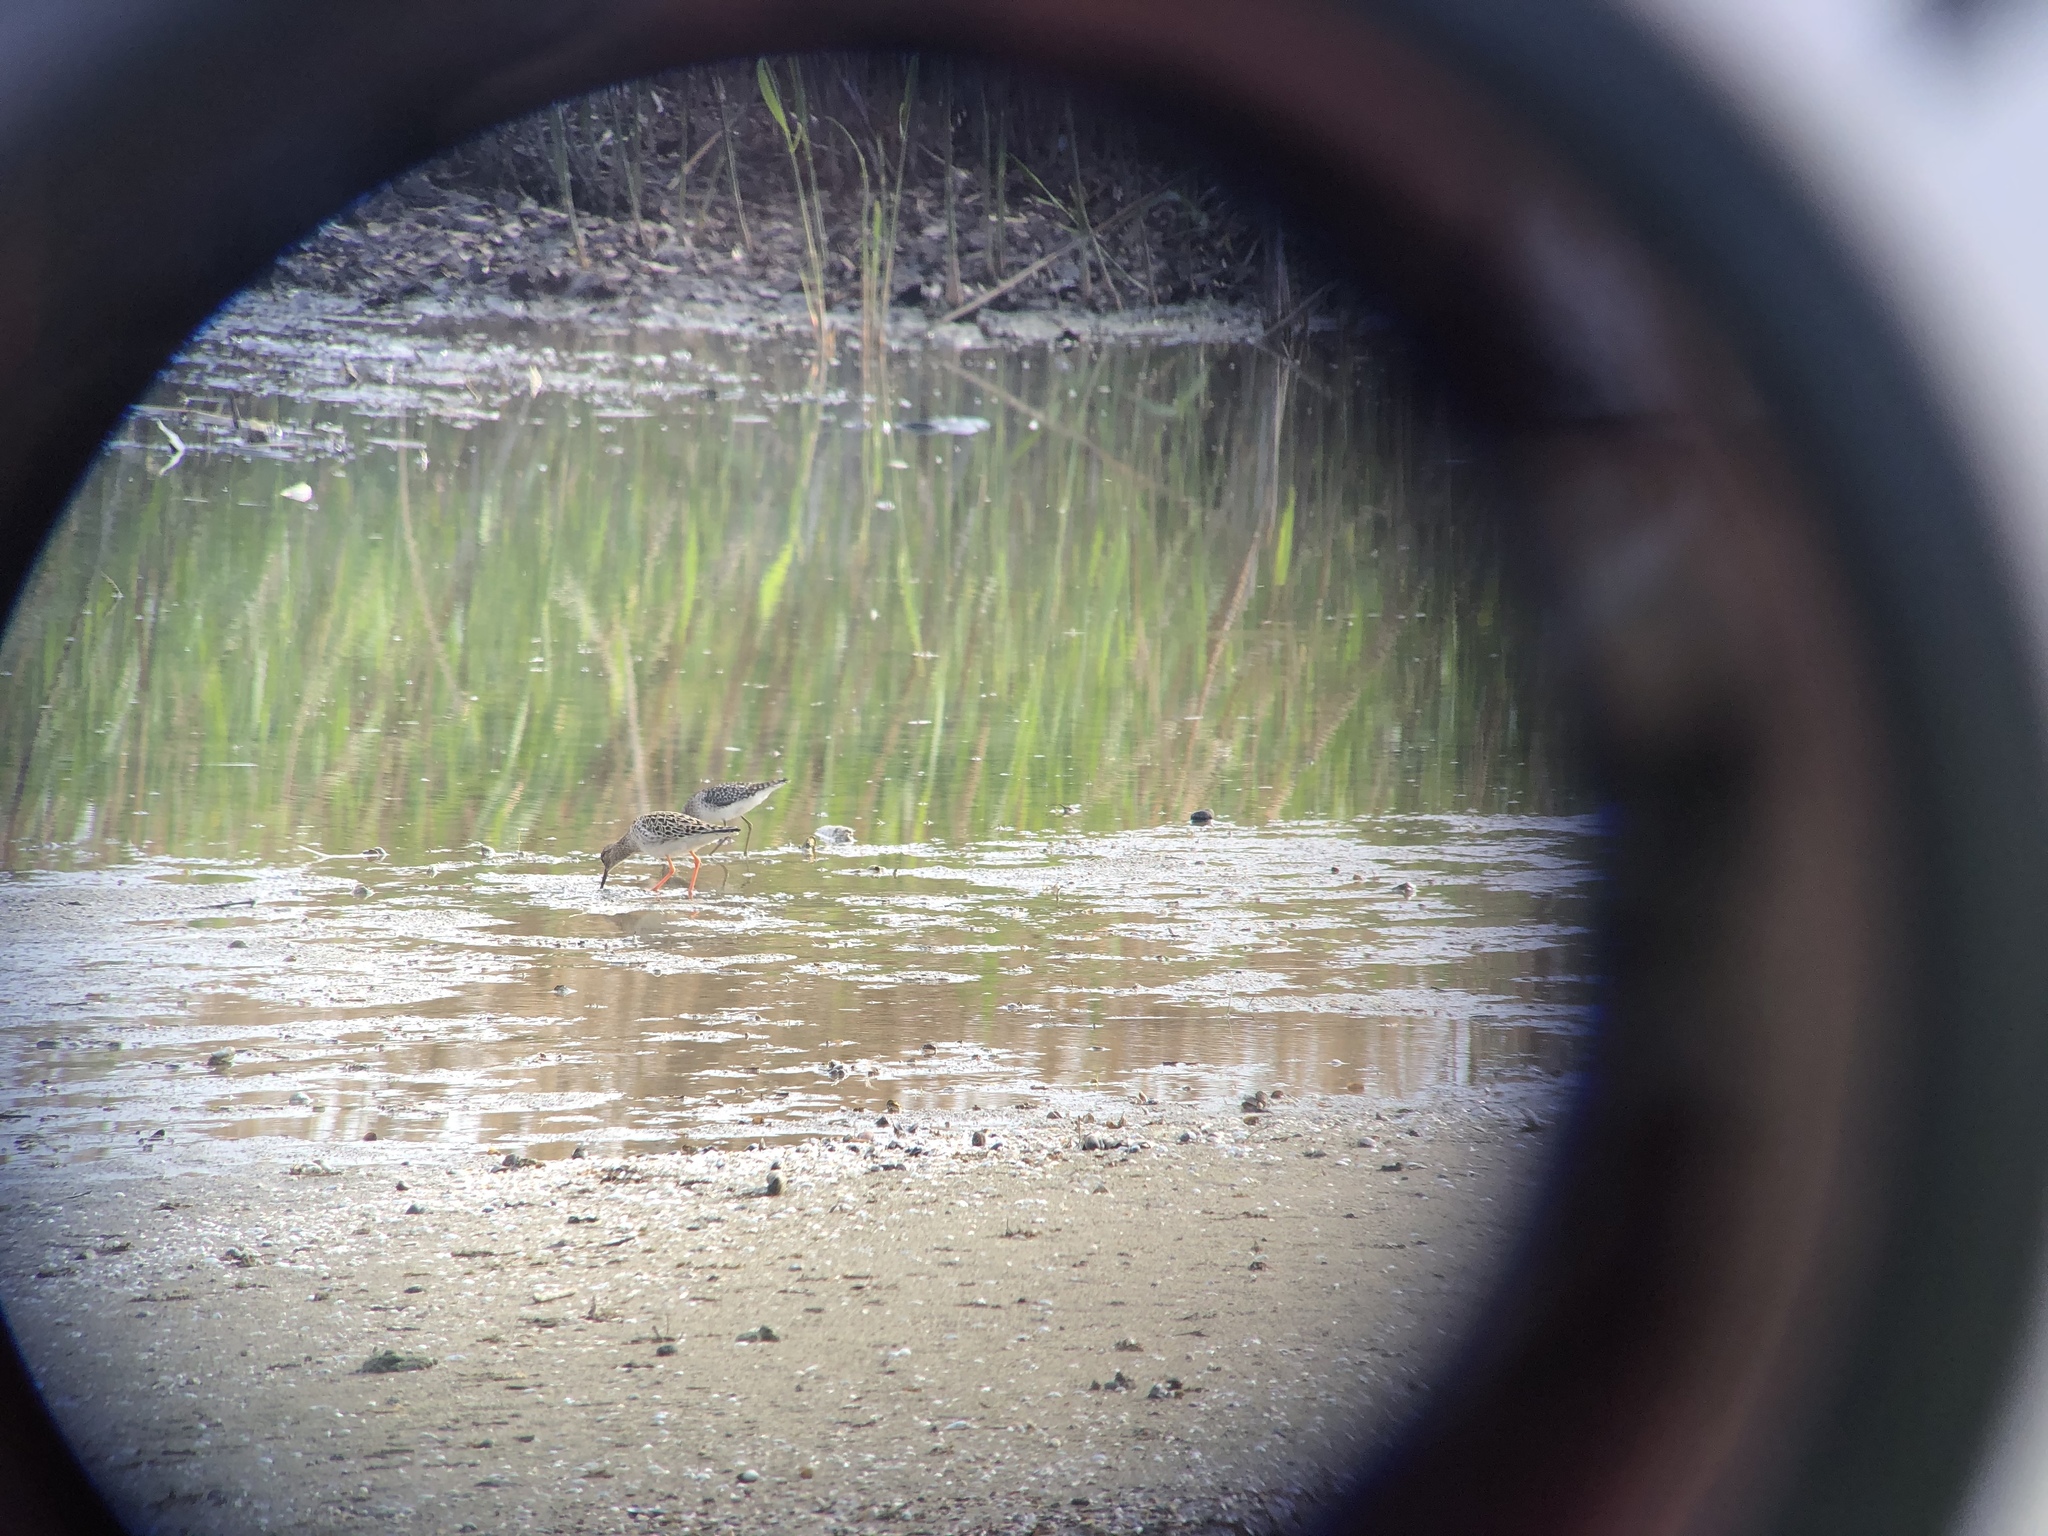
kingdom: Animalia
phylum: Chordata
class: Aves
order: Charadriiformes
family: Scolopacidae
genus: Calidris
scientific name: Calidris pugnax
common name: Ruff
